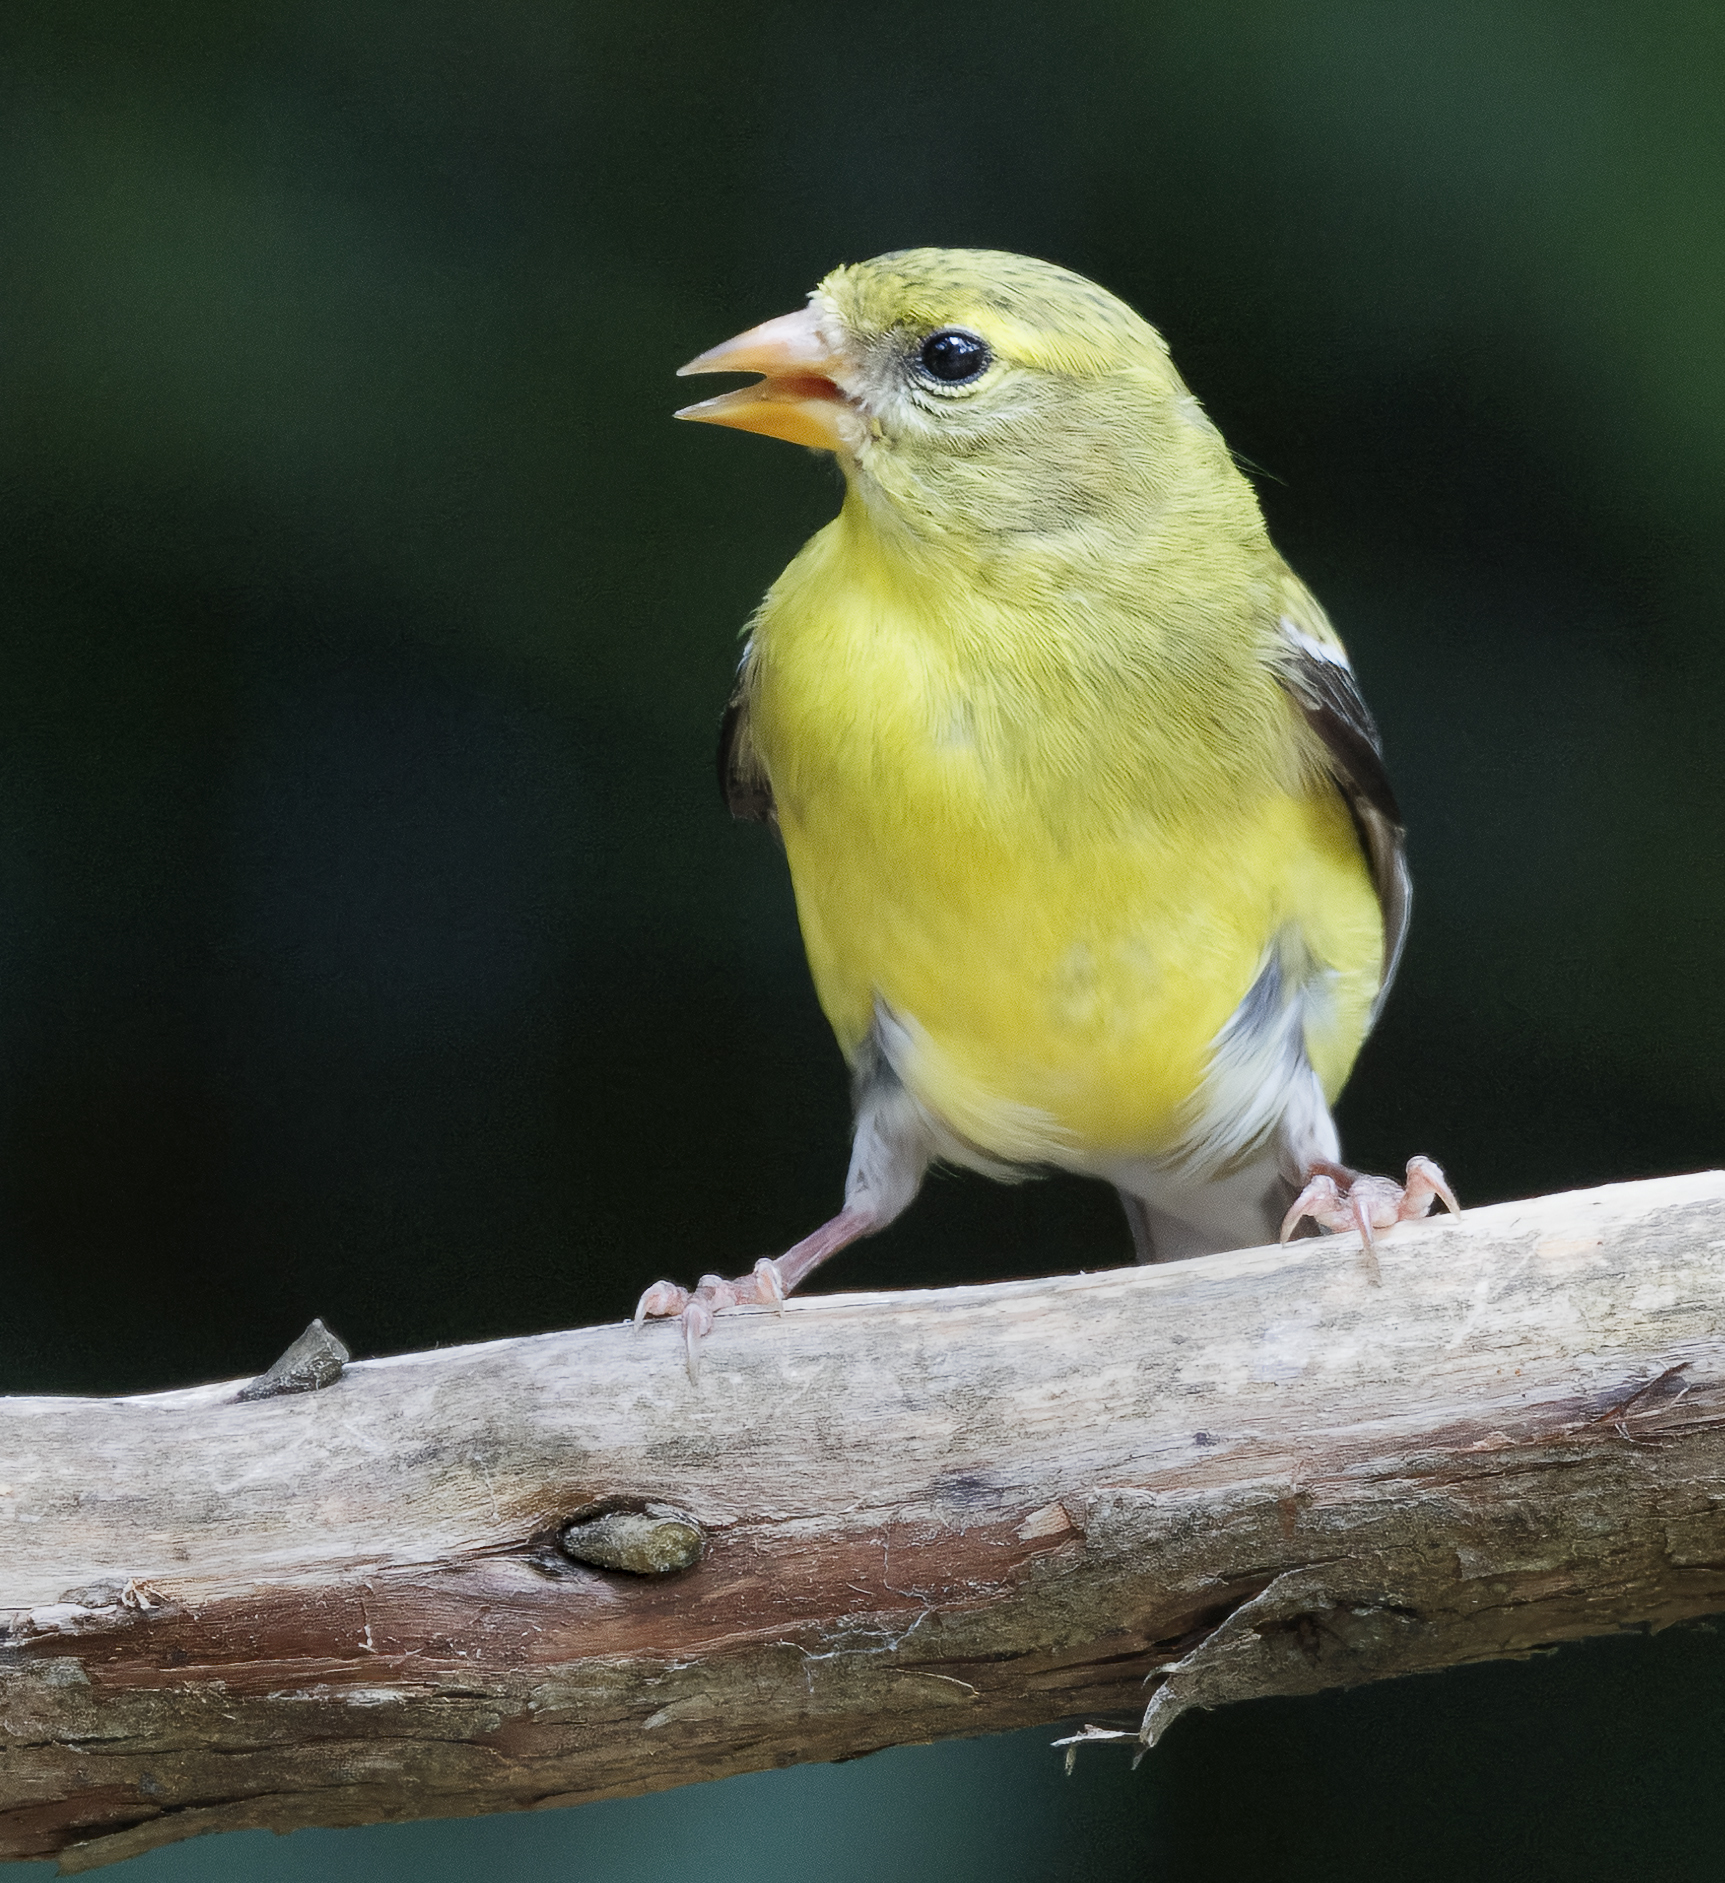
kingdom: Animalia
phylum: Chordata
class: Aves
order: Passeriformes
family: Fringillidae
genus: Spinus
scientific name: Spinus tristis
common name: American goldfinch
